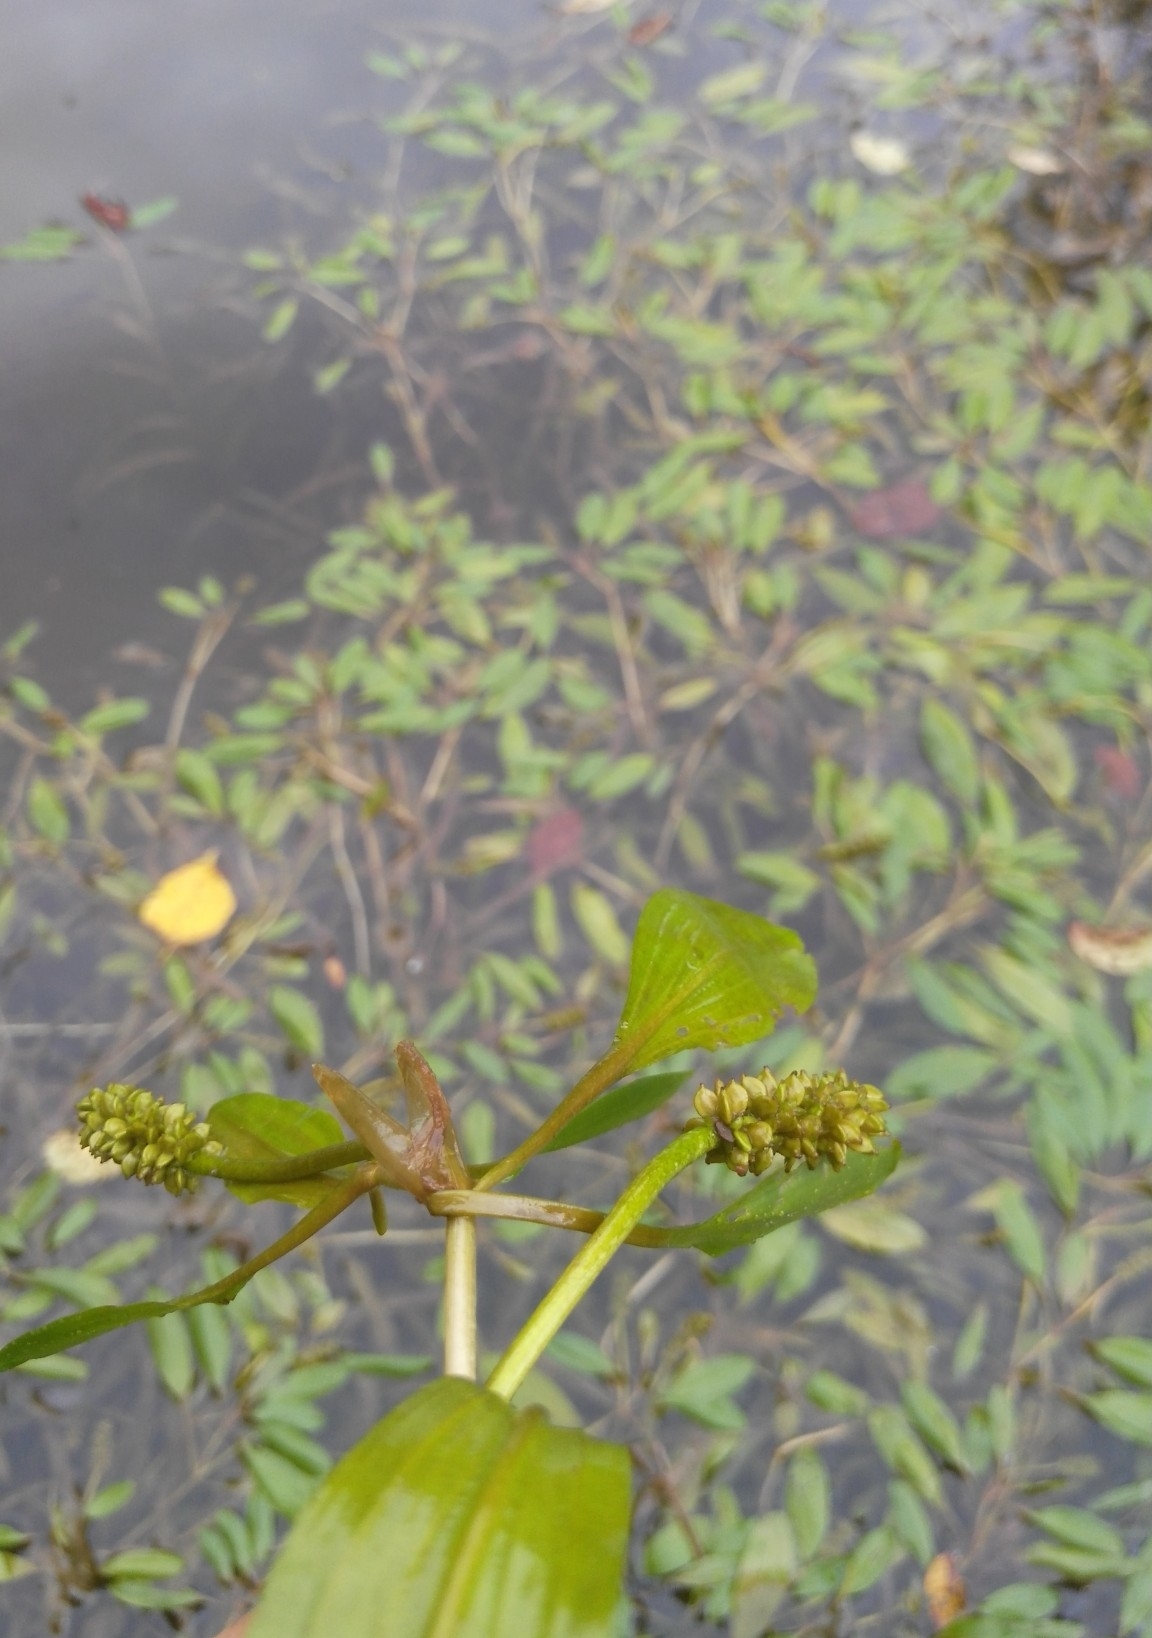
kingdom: Plantae
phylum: Tracheophyta
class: Liliopsida
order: Alismatales
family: Potamogetonaceae
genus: Potamogeton
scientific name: Potamogeton gramineus
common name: Various-leaved pondweed
